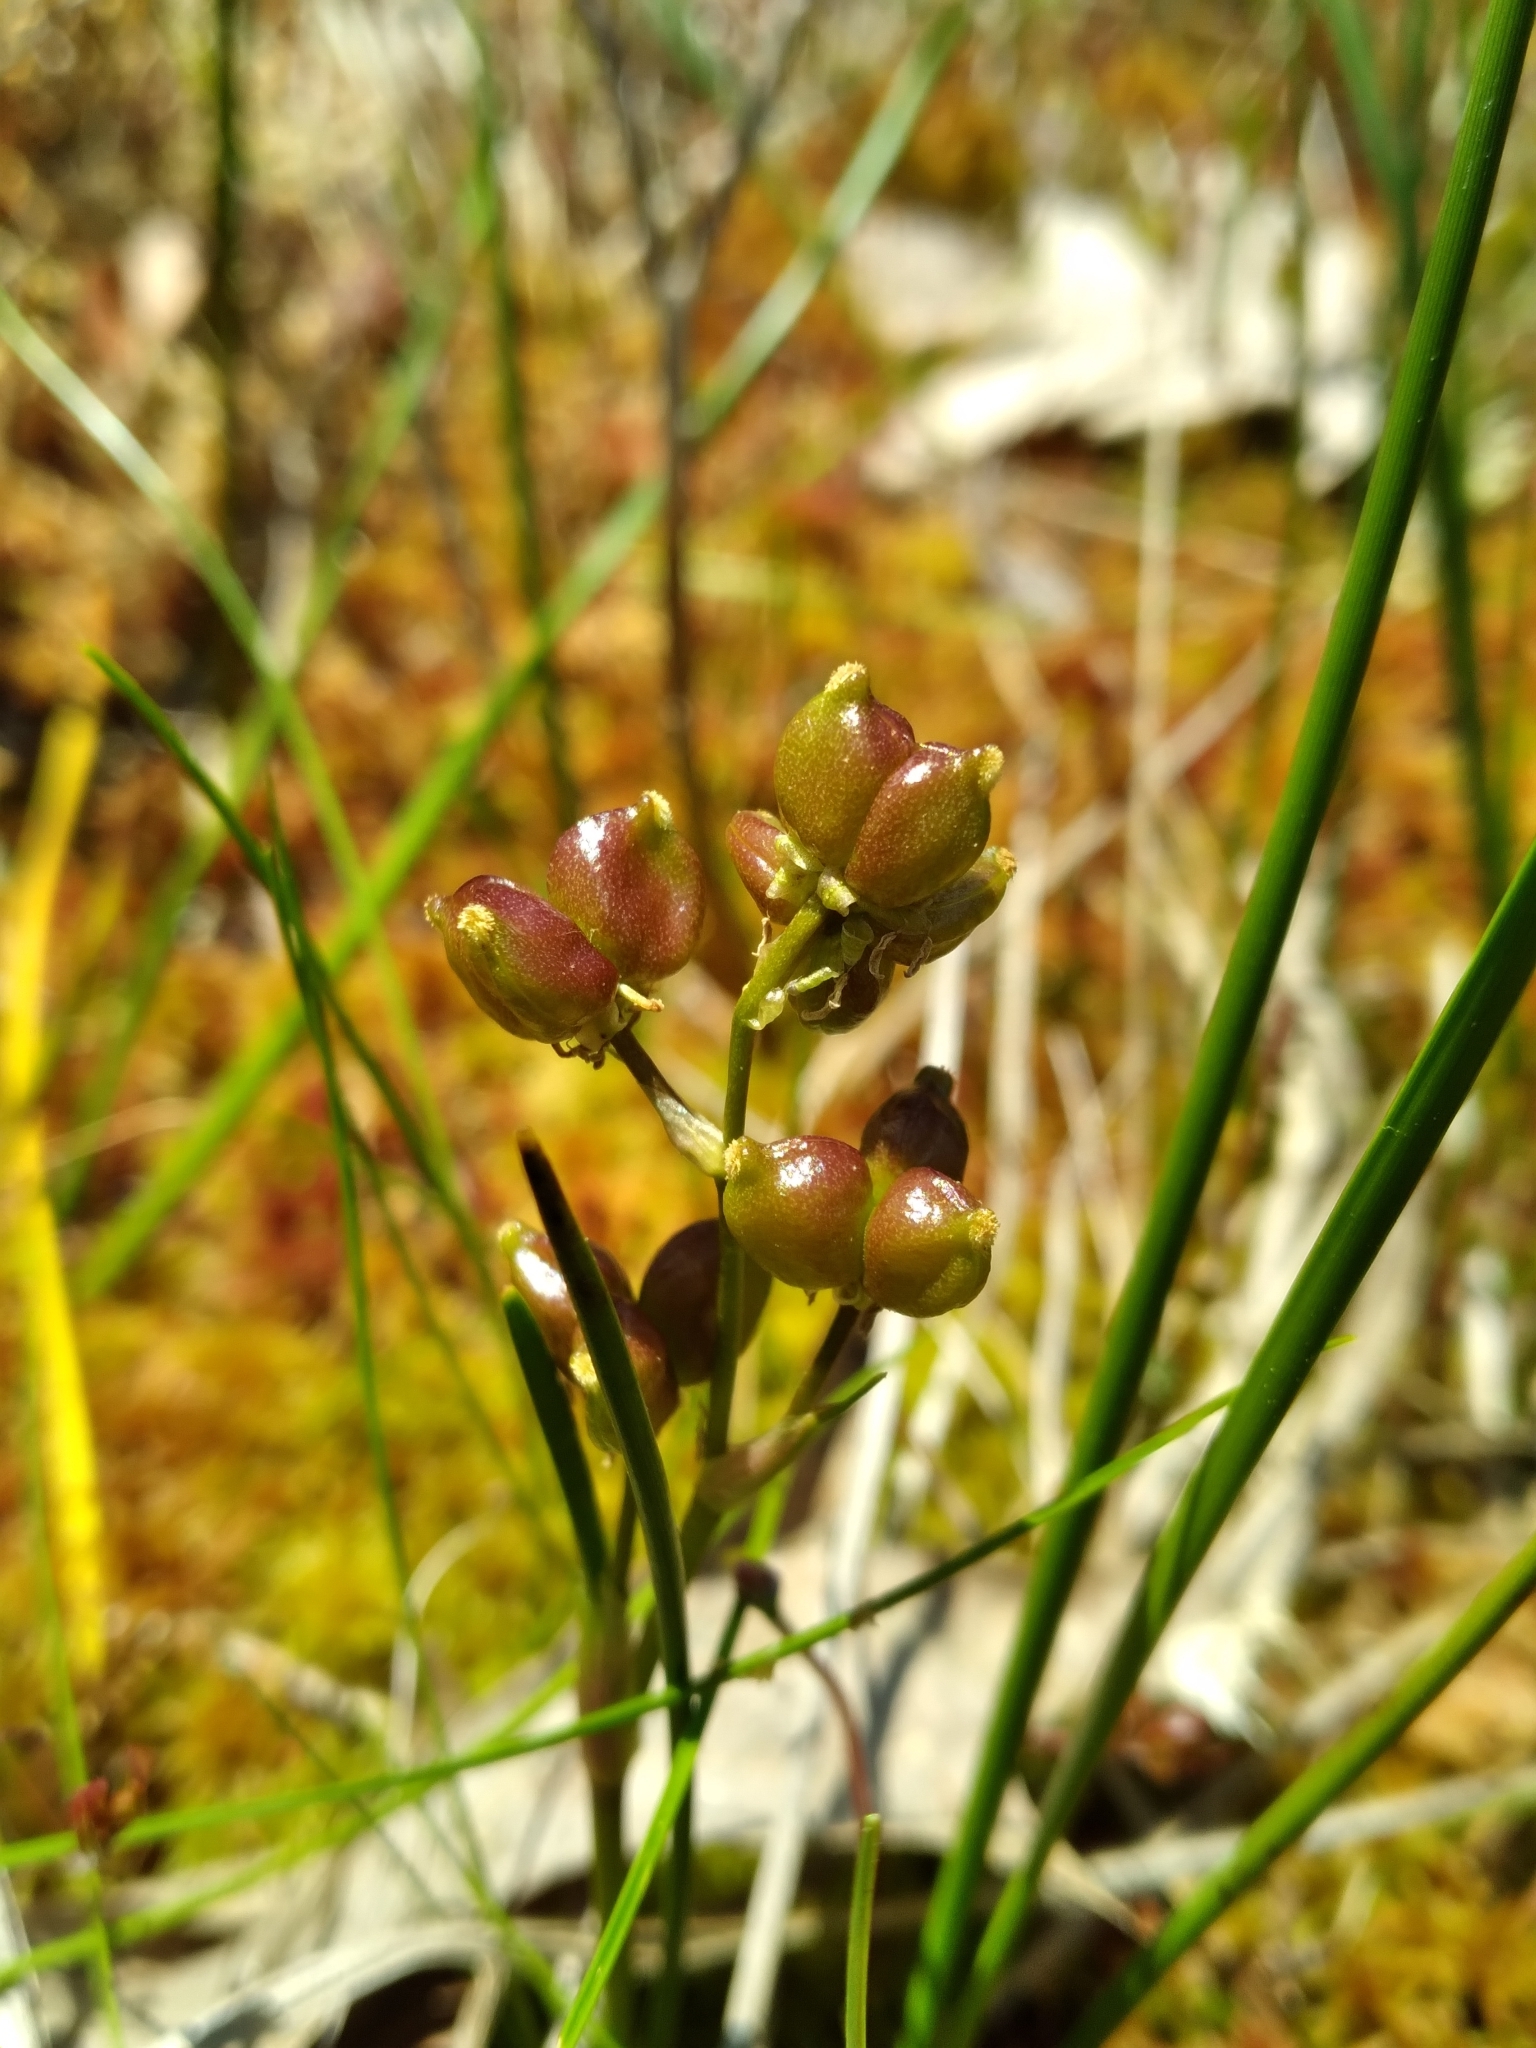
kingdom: Plantae
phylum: Tracheophyta
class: Liliopsida
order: Alismatales
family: Scheuchzeriaceae
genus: Scheuchzeria
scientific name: Scheuchzeria palustris
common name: Rannoch-rush
